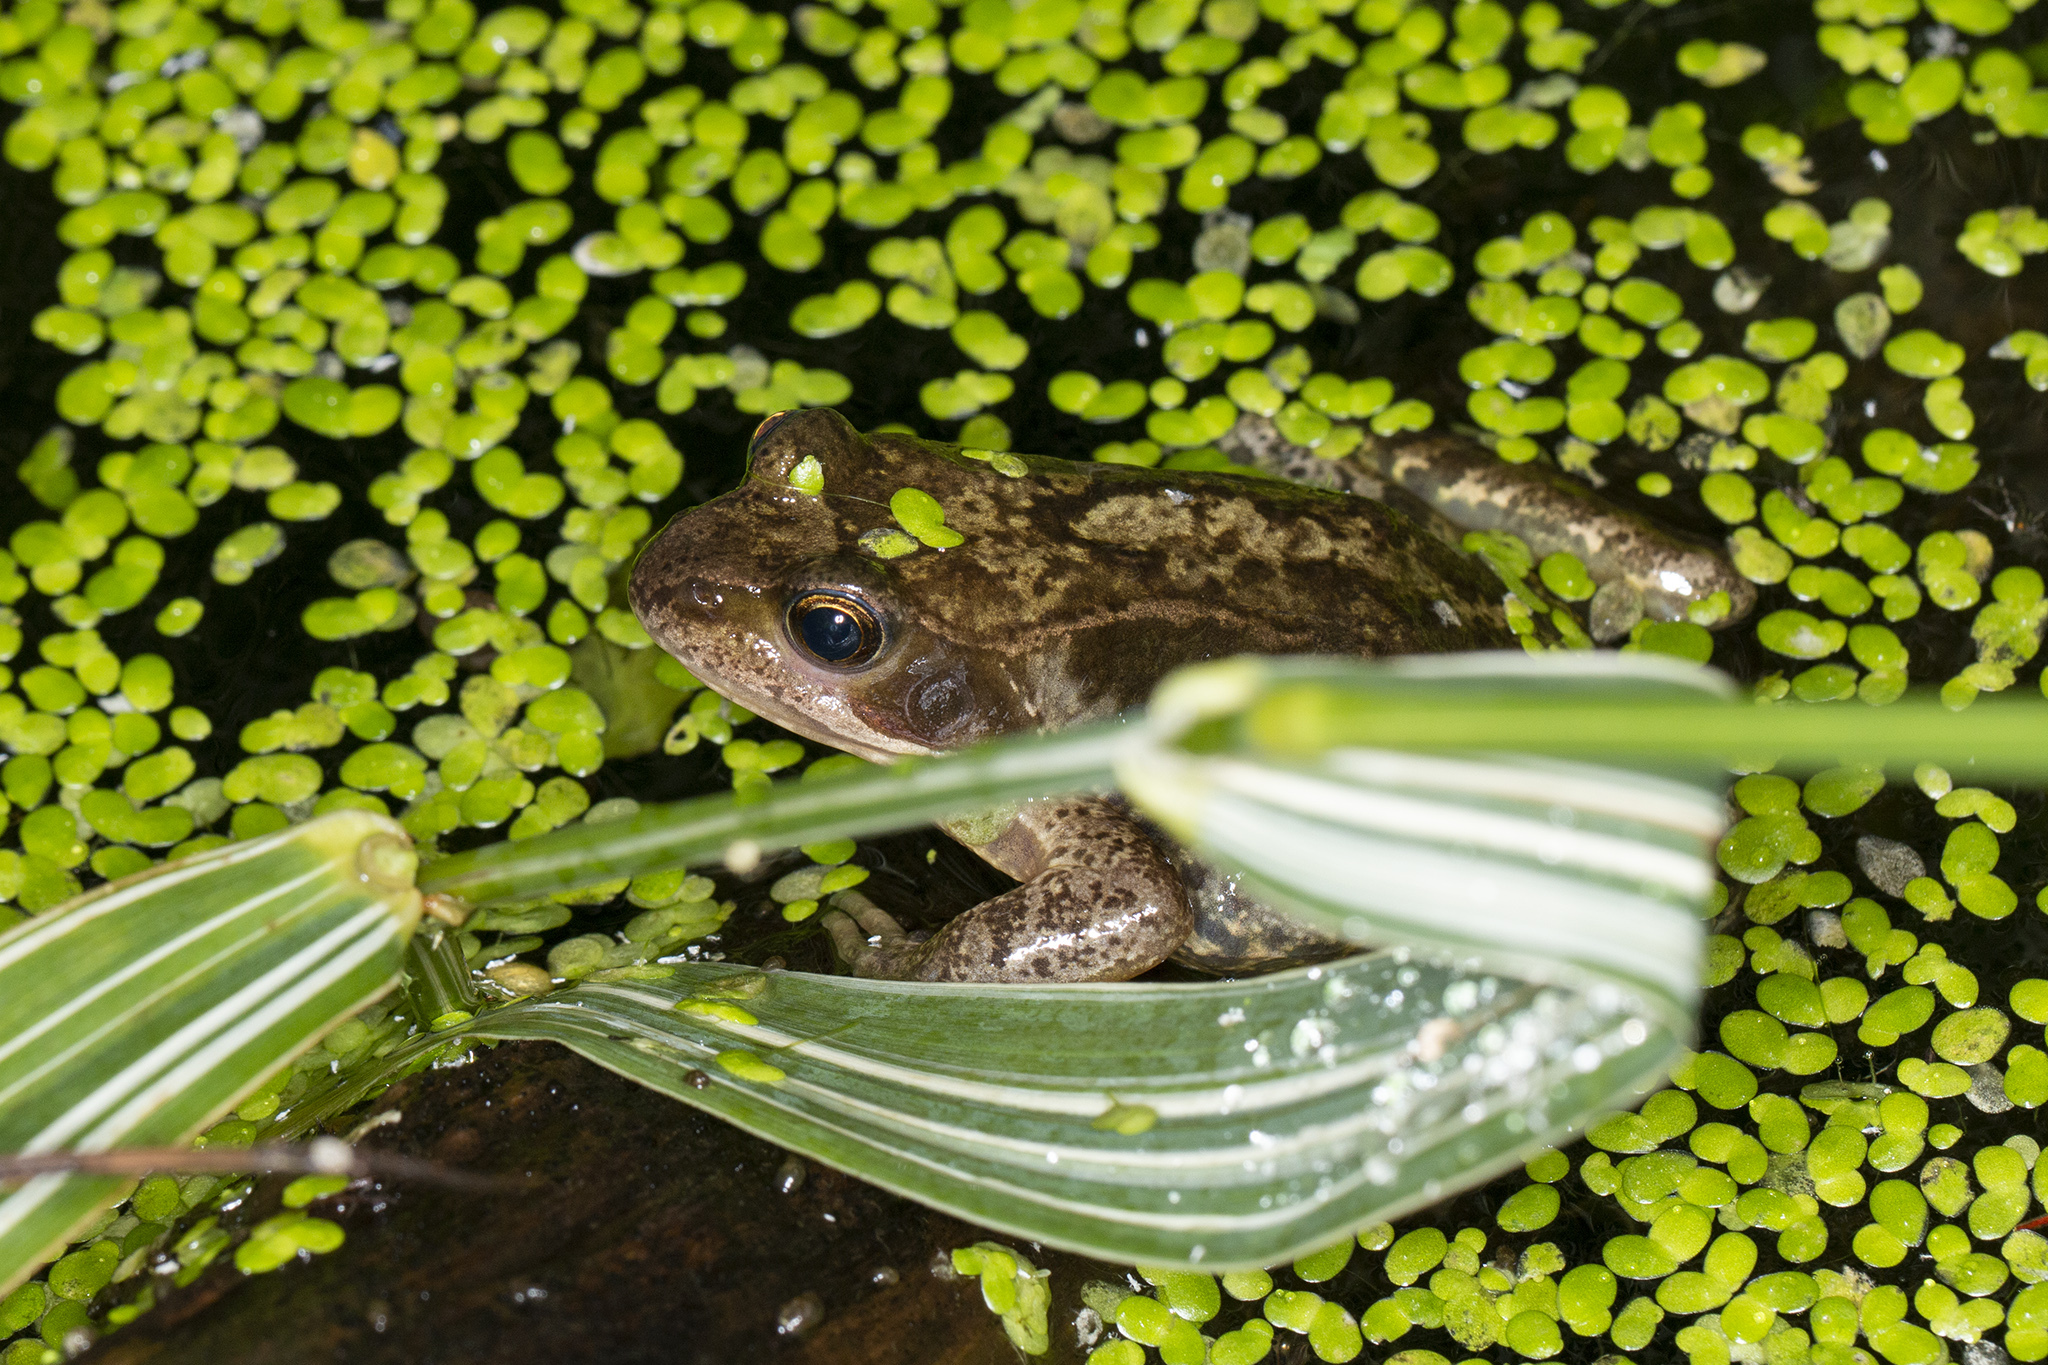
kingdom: Animalia
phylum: Chordata
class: Amphibia
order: Anura
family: Ranidae
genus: Rana
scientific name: Rana temporaria
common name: Common frog
